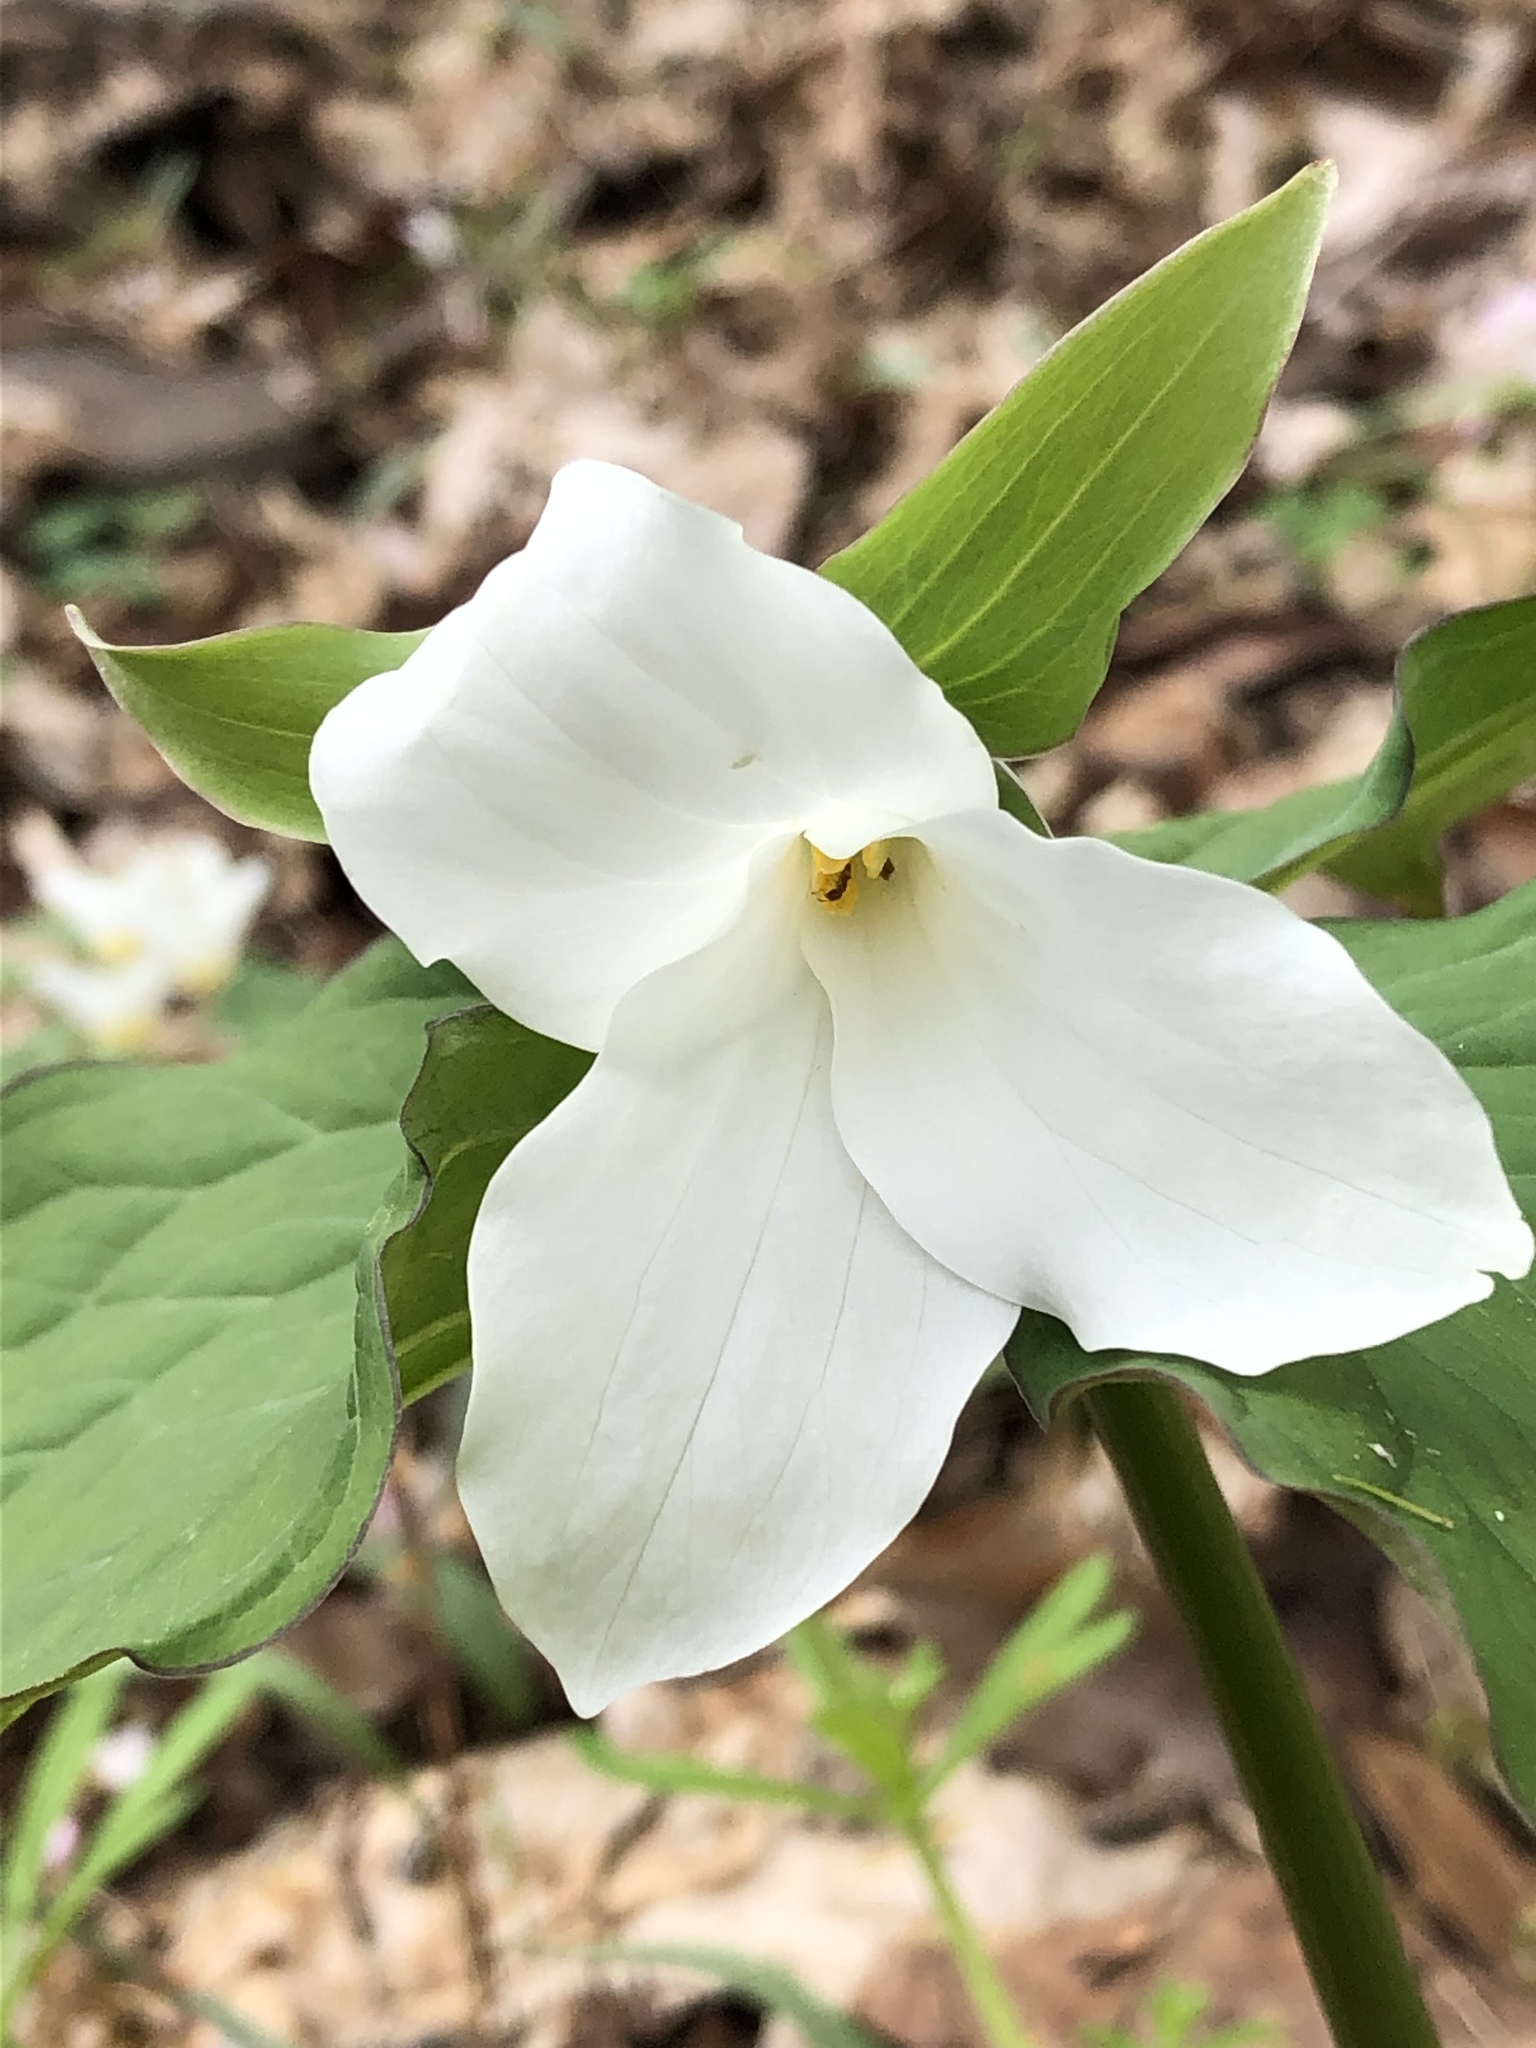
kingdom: Plantae
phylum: Tracheophyta
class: Liliopsida
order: Liliales
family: Melanthiaceae
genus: Trillium
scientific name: Trillium grandiflorum
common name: Great white trillium
